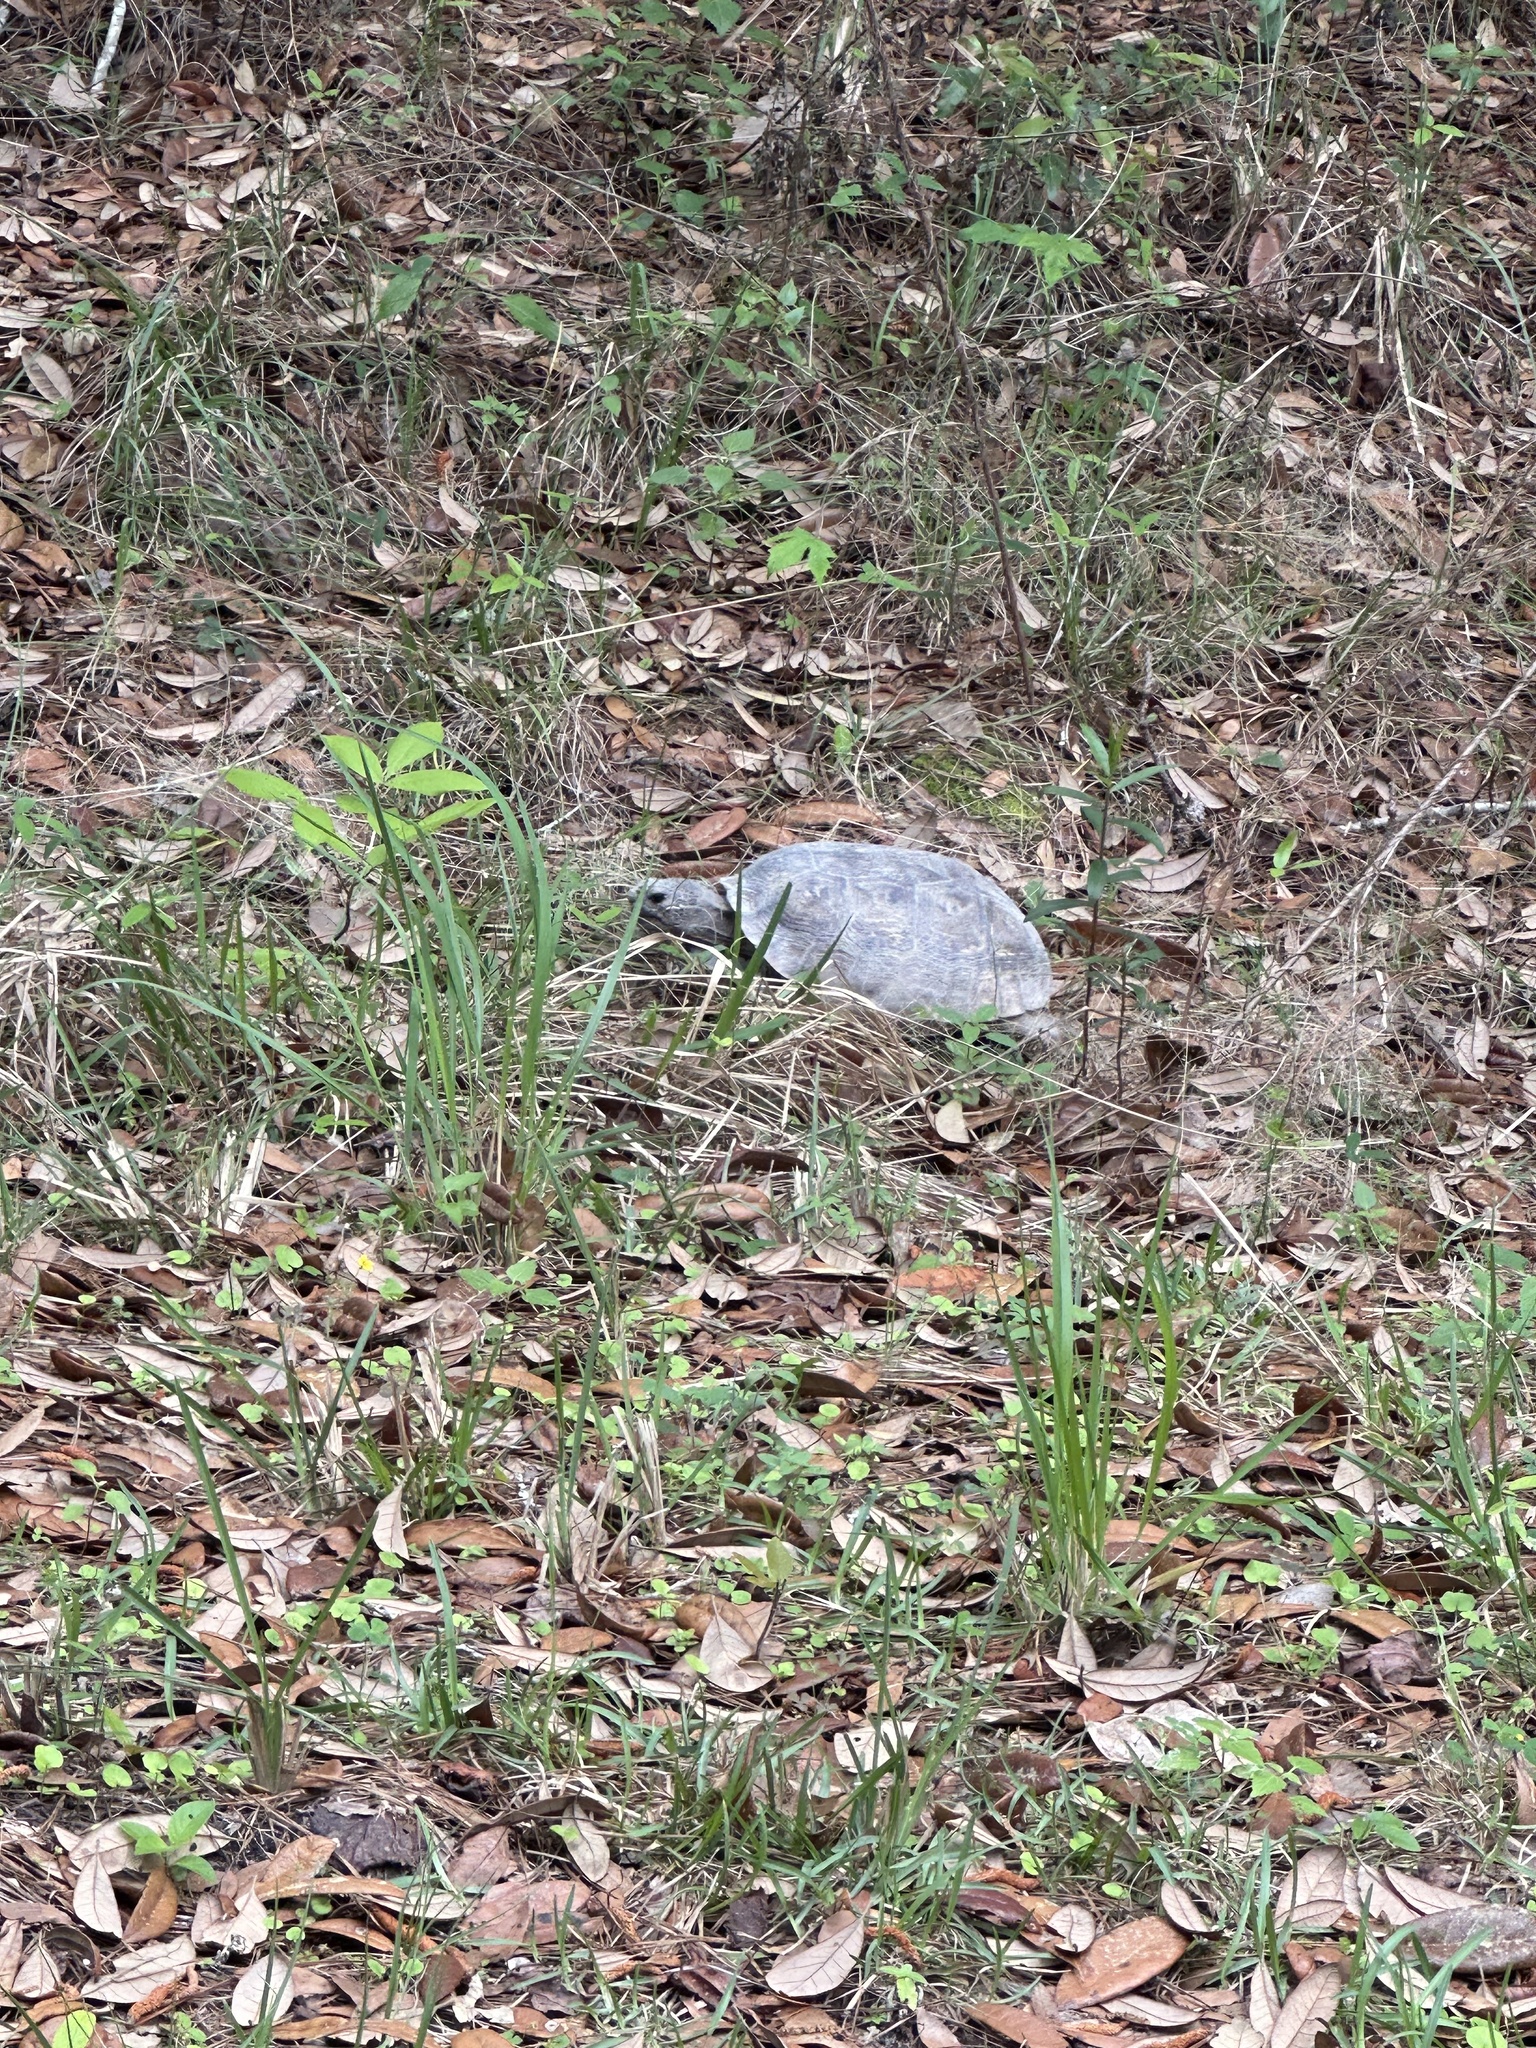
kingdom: Animalia
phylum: Chordata
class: Testudines
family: Testudinidae
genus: Gopherus
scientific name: Gopherus polyphemus
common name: Florida gopher tortoise
